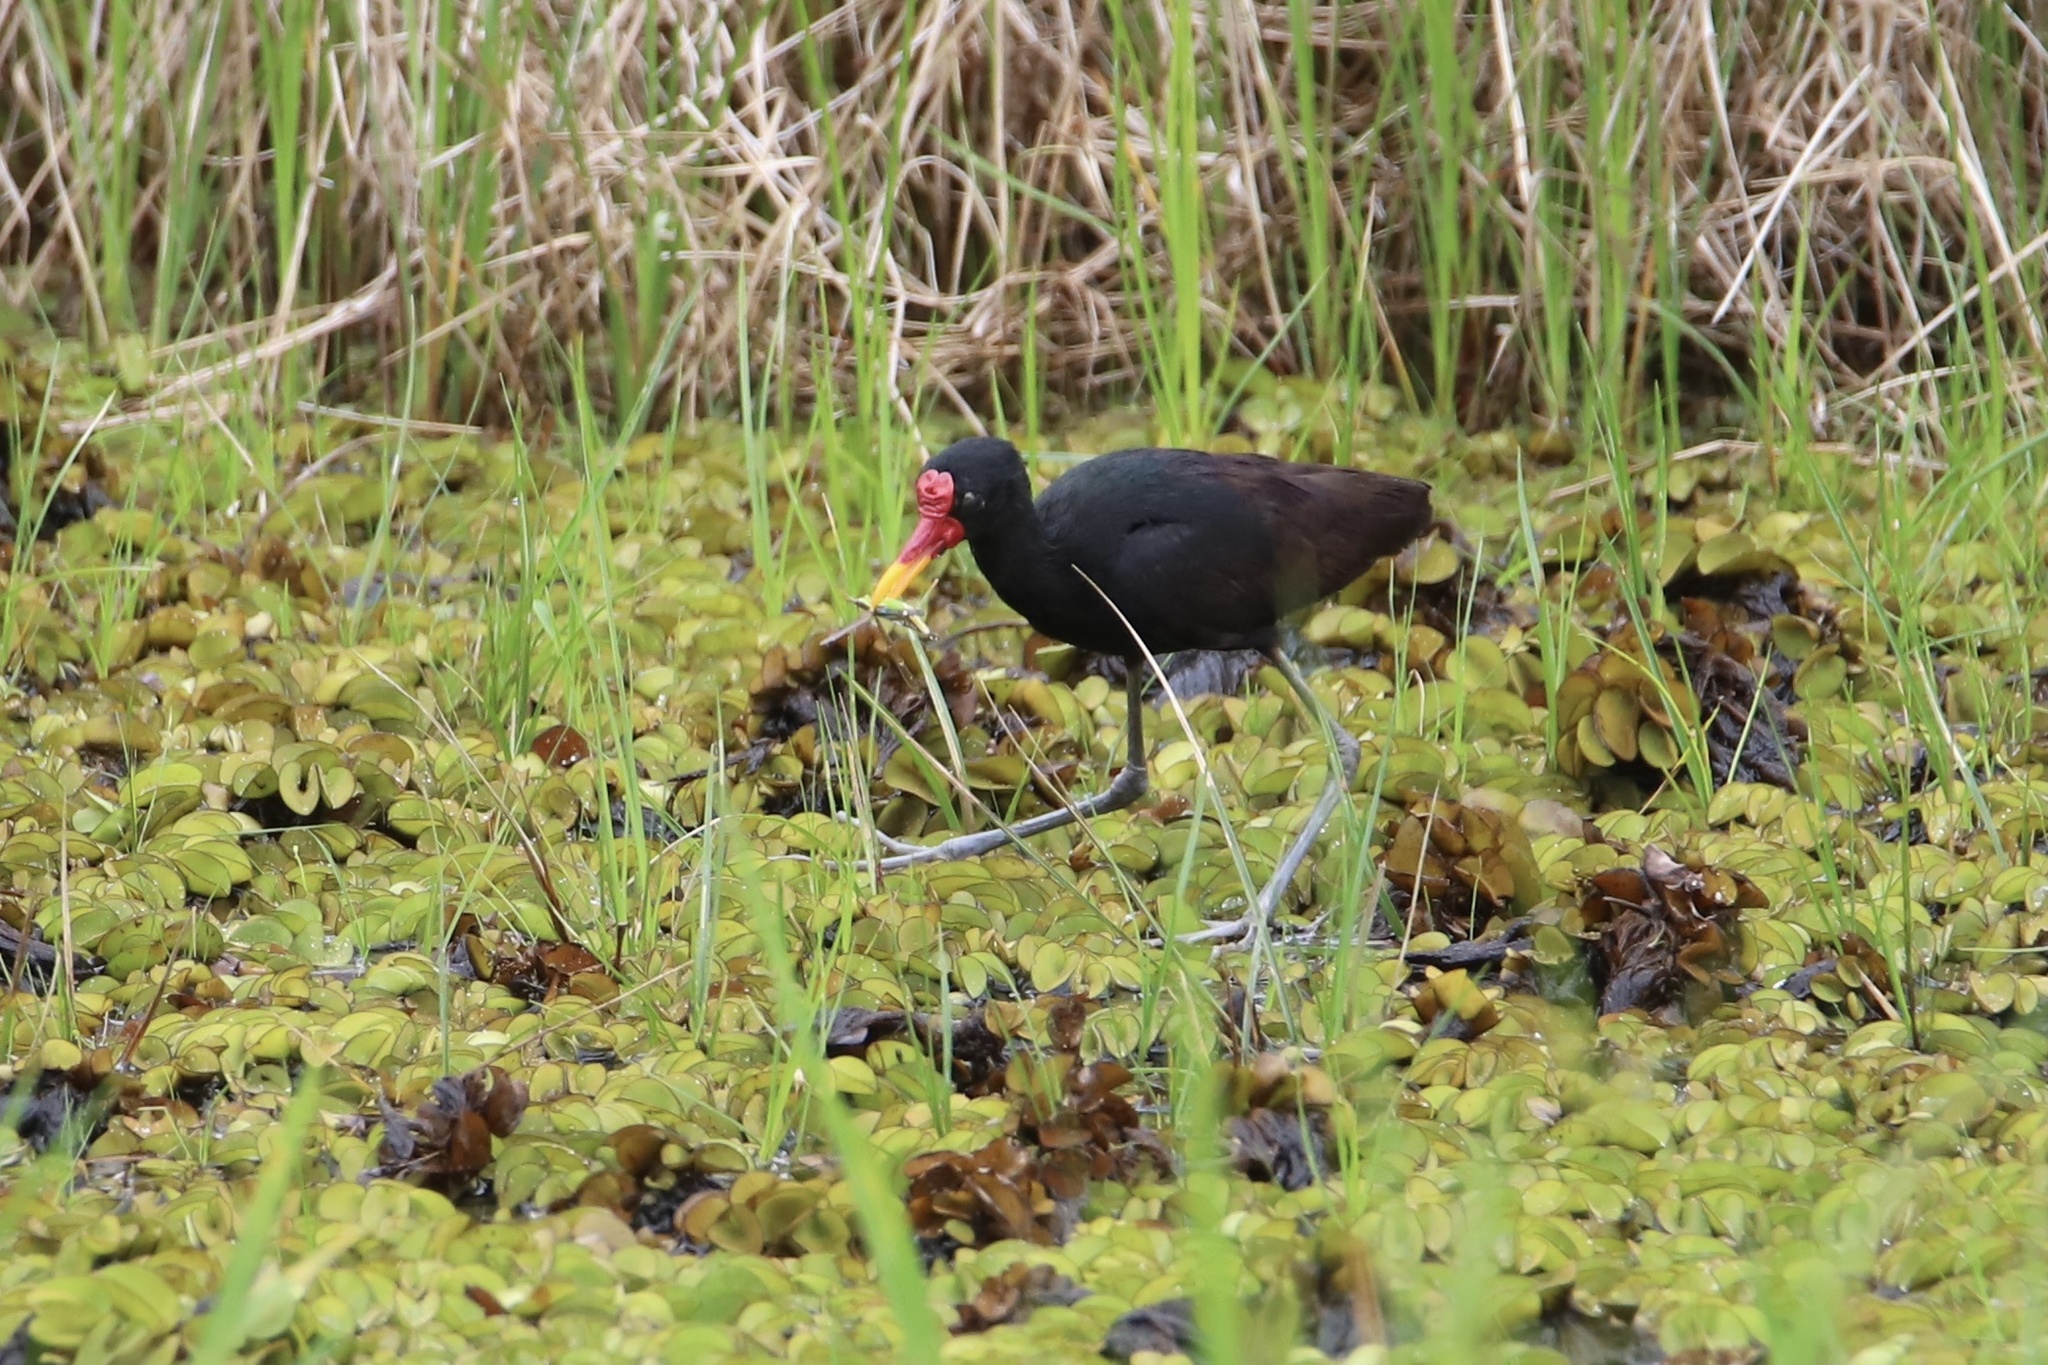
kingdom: Animalia
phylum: Chordata
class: Aves
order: Charadriiformes
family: Jacanidae
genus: Jacana
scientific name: Jacana jacana
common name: Wattled jacana
